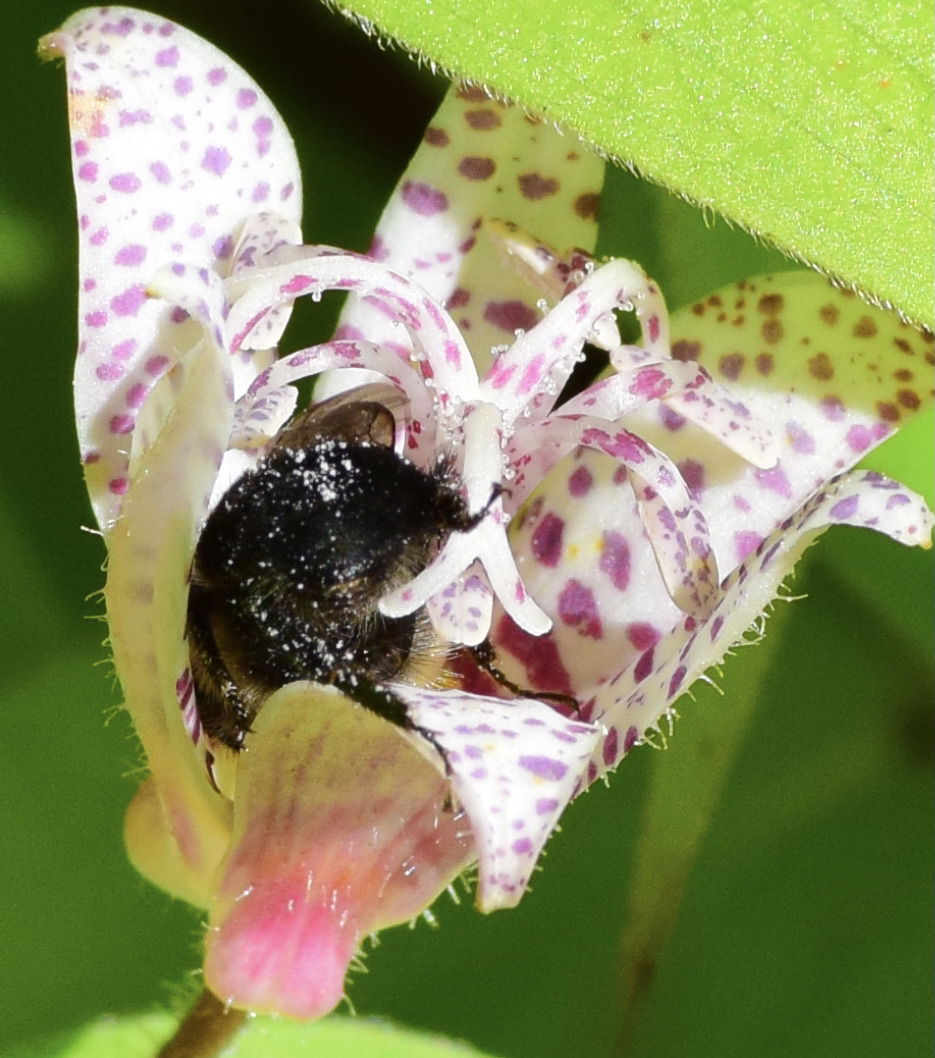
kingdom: Animalia
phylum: Arthropoda
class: Insecta
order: Hymenoptera
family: Apidae
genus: Bombus
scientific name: Bombus impatiens
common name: Common eastern bumble bee
